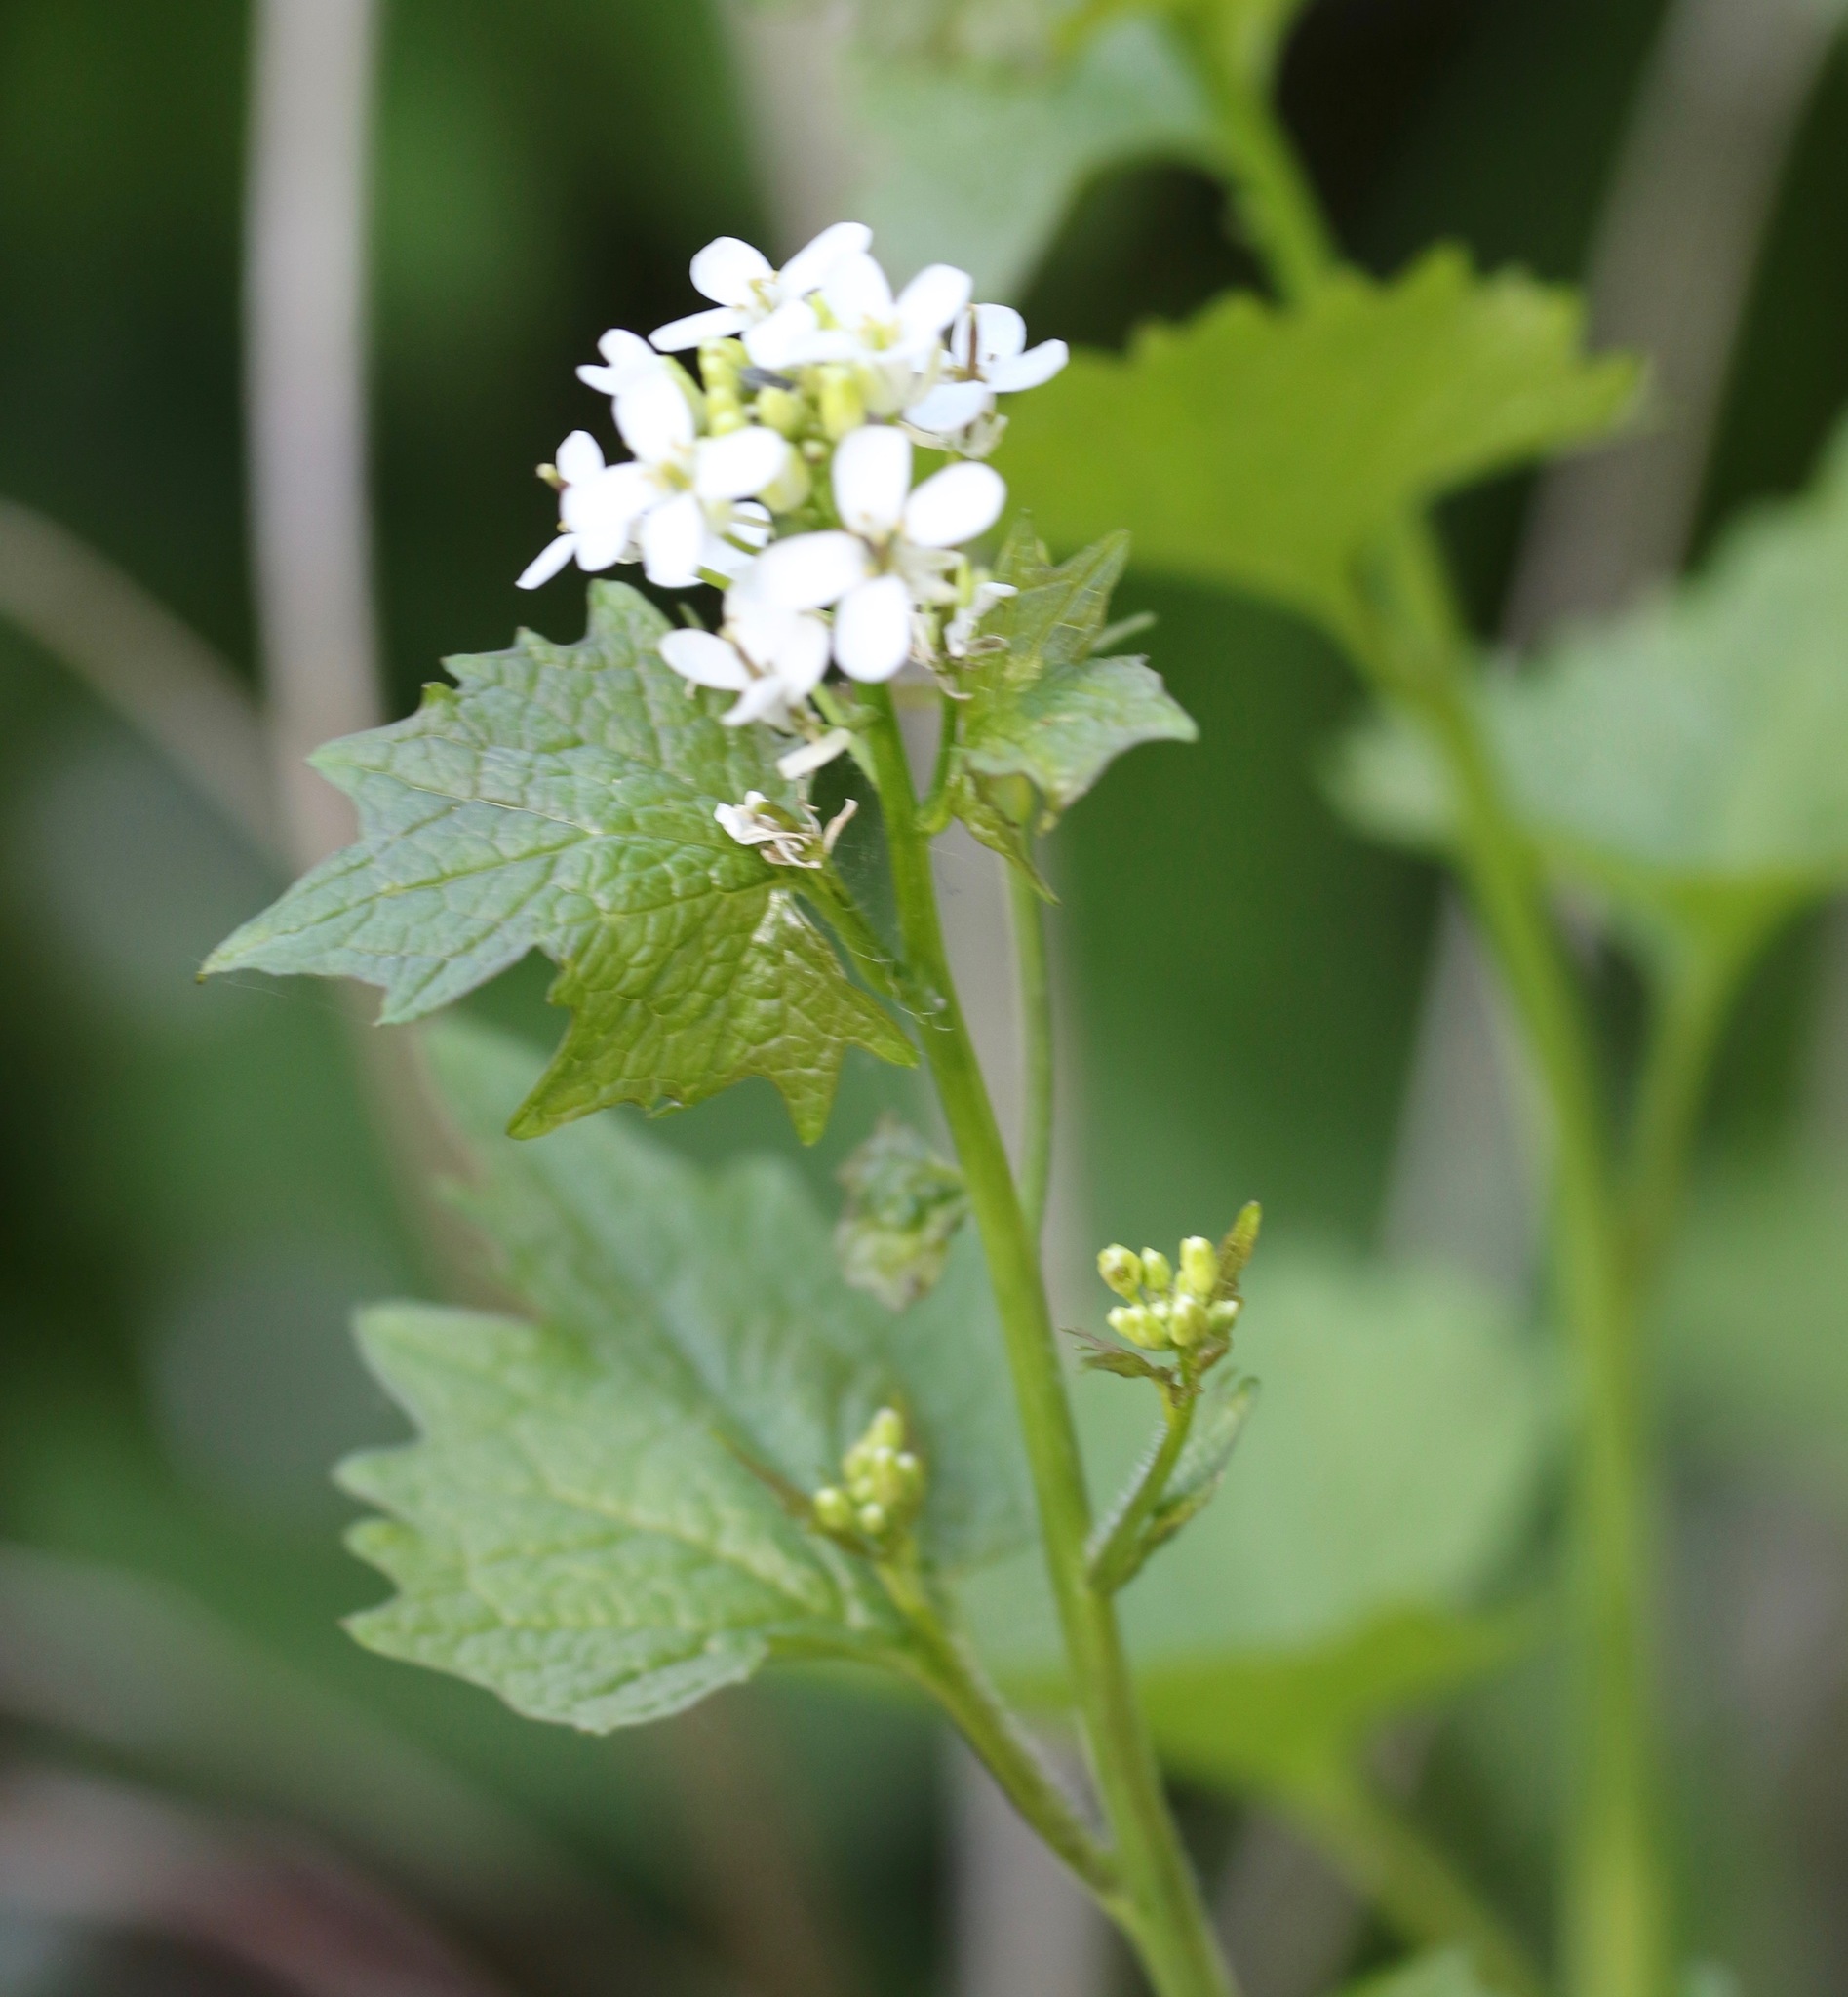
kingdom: Plantae
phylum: Tracheophyta
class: Magnoliopsida
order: Brassicales
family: Brassicaceae
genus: Alliaria
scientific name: Alliaria petiolata
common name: Garlic mustard
